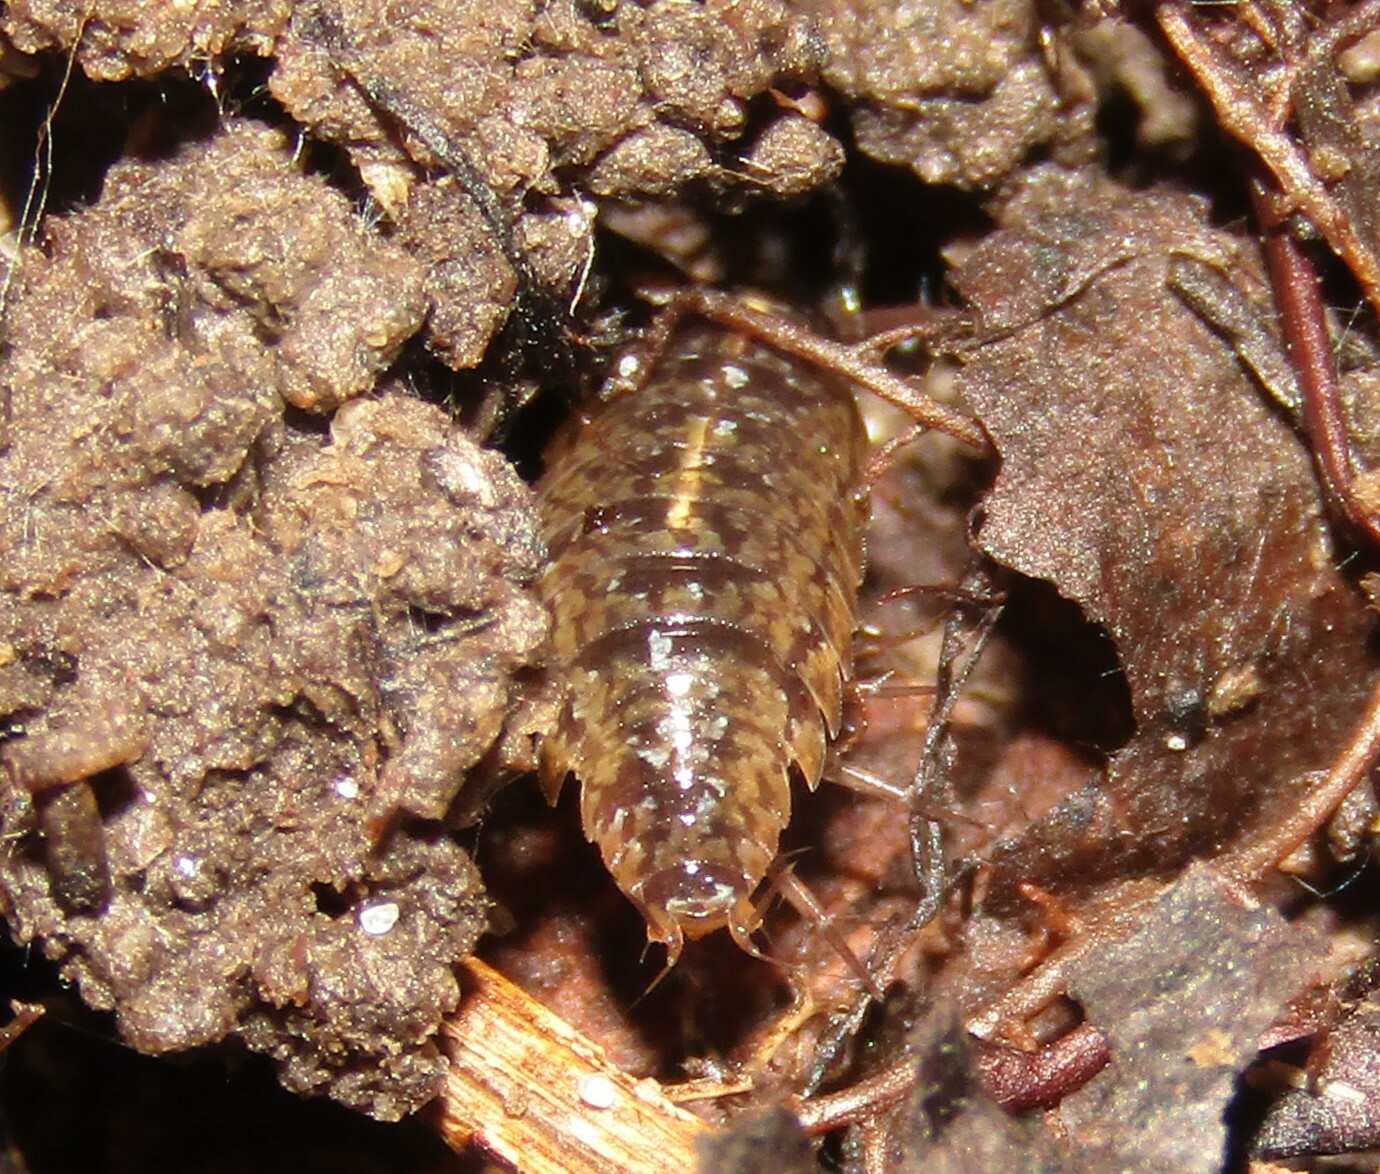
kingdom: Animalia
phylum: Arthropoda
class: Malacostraca
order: Isopoda
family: Ligiidae
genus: Ligidium
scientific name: Ligidium hypnorum
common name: Moss slater
